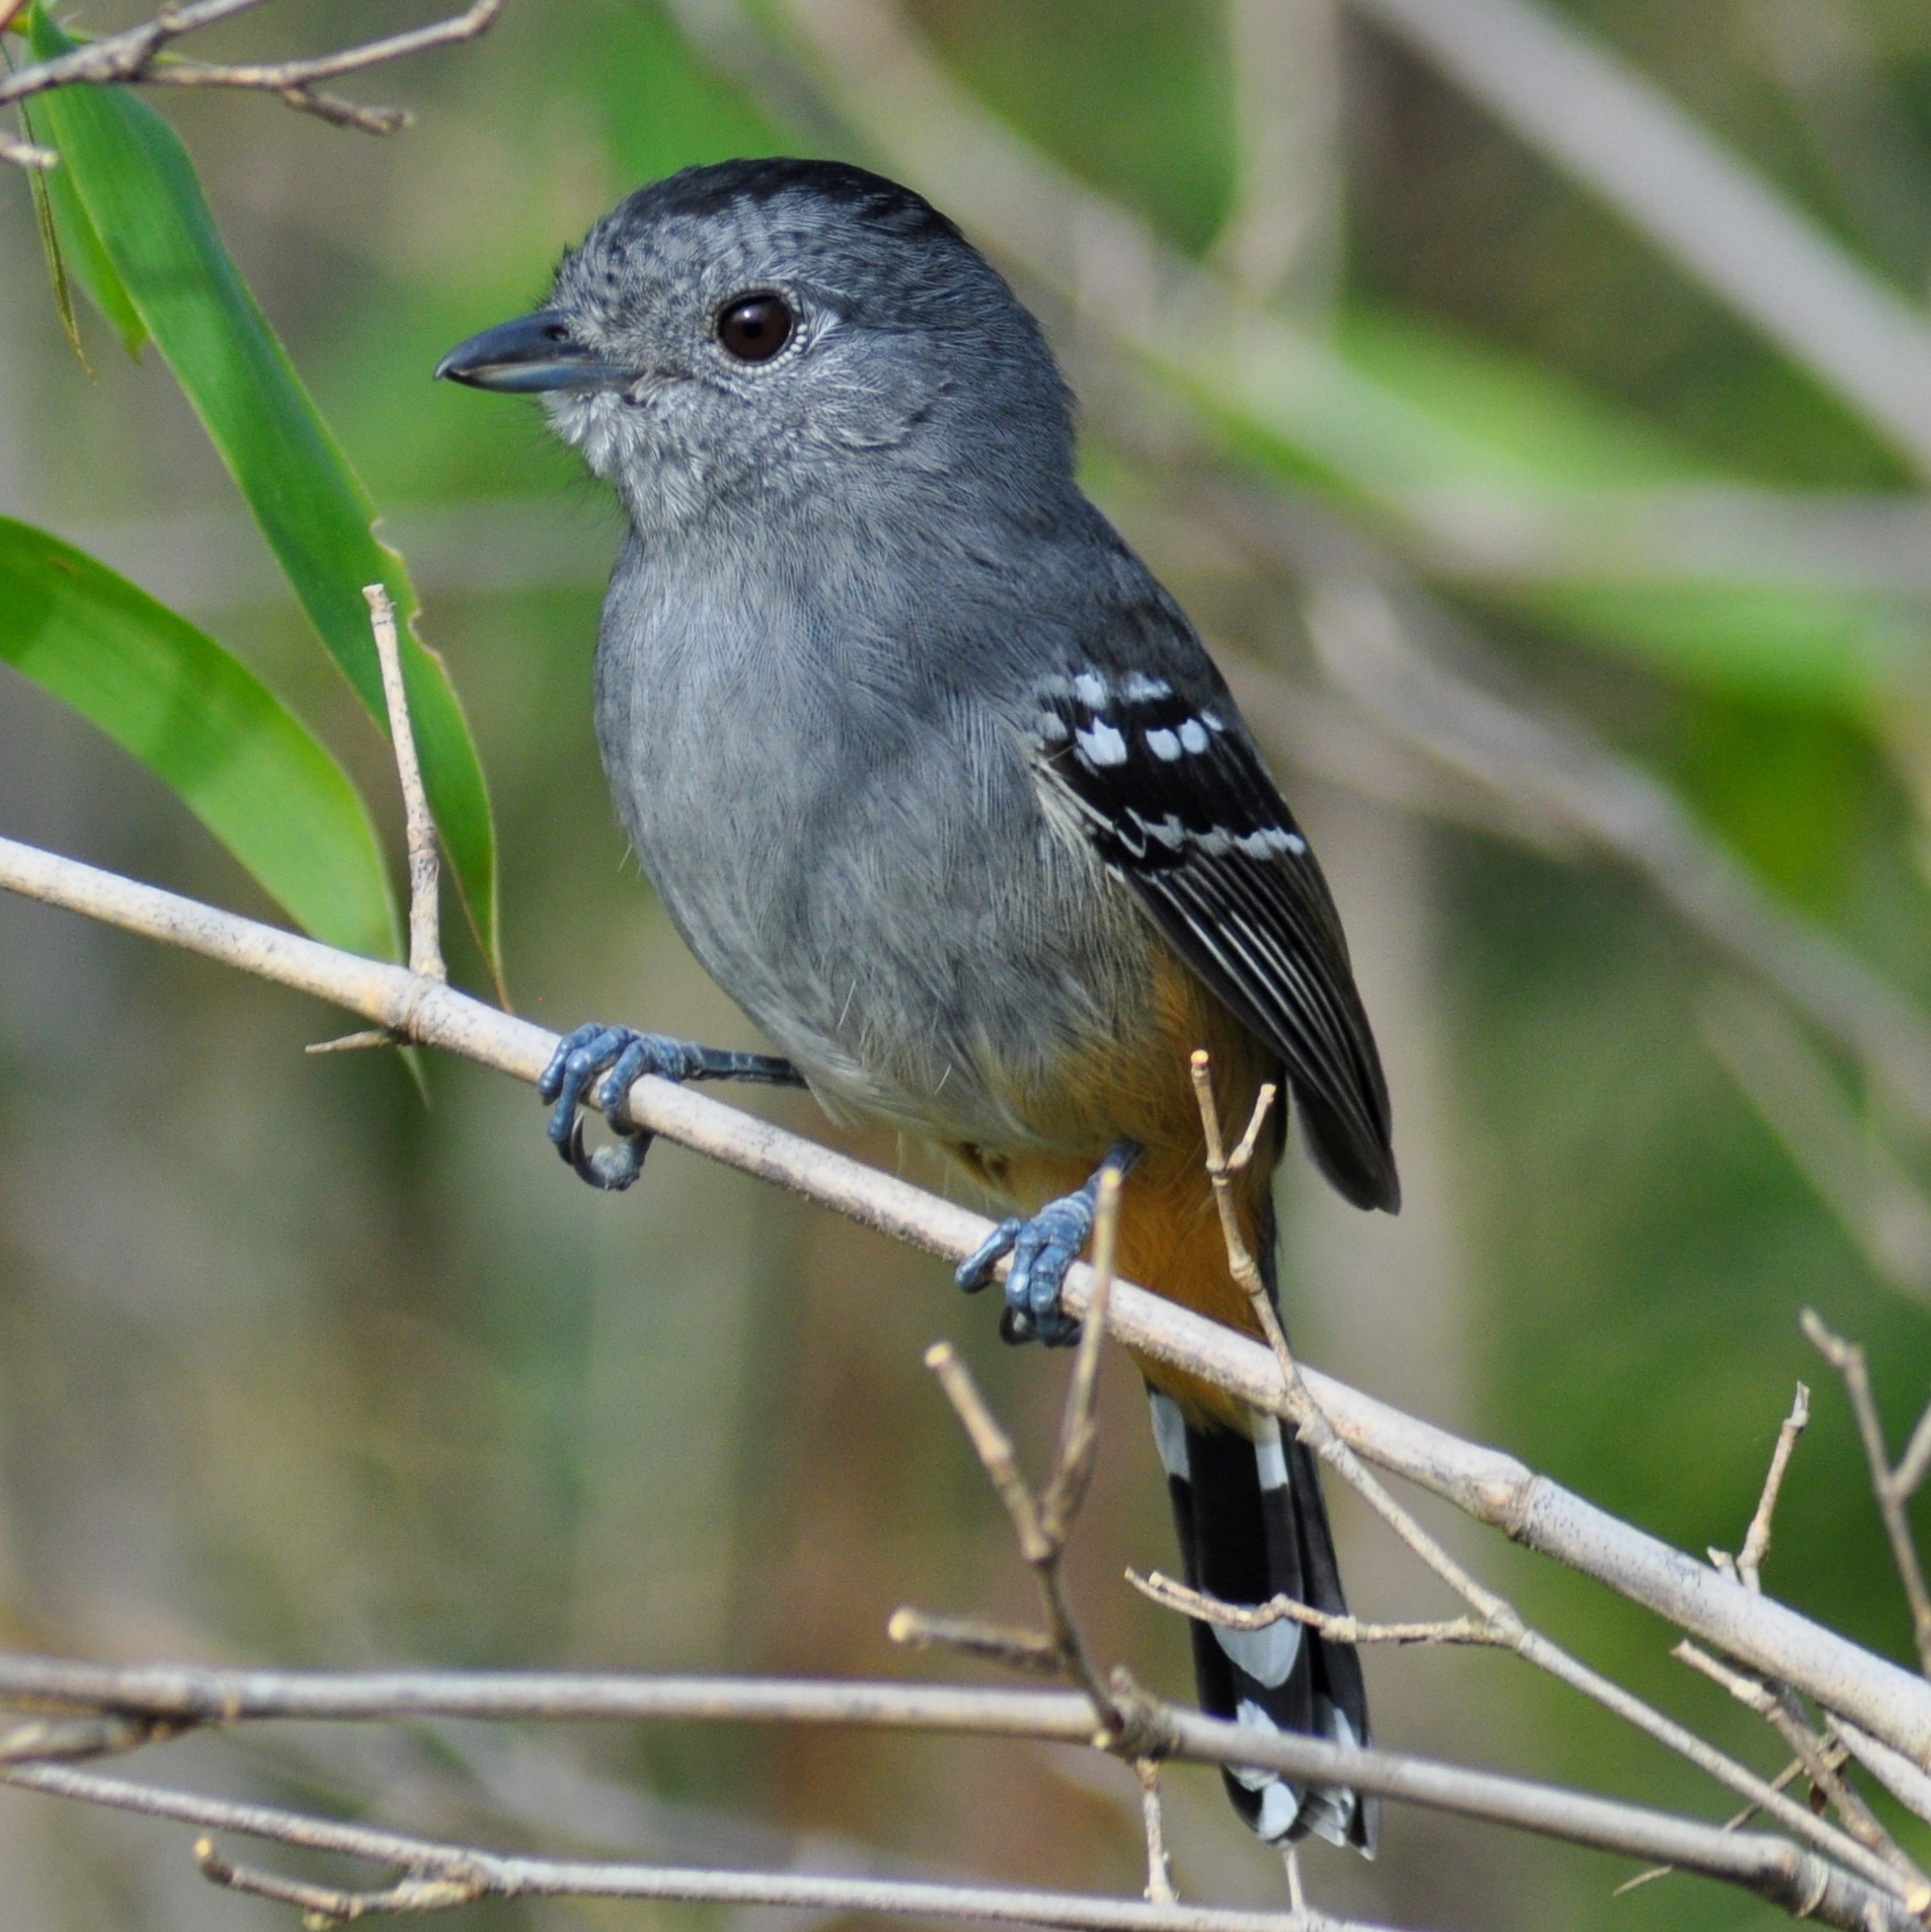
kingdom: Animalia
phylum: Chordata
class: Aves
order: Passeriformes
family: Thamnophilidae
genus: Thamnophilus
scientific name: Thamnophilus caerulescens
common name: Variable antshrike
